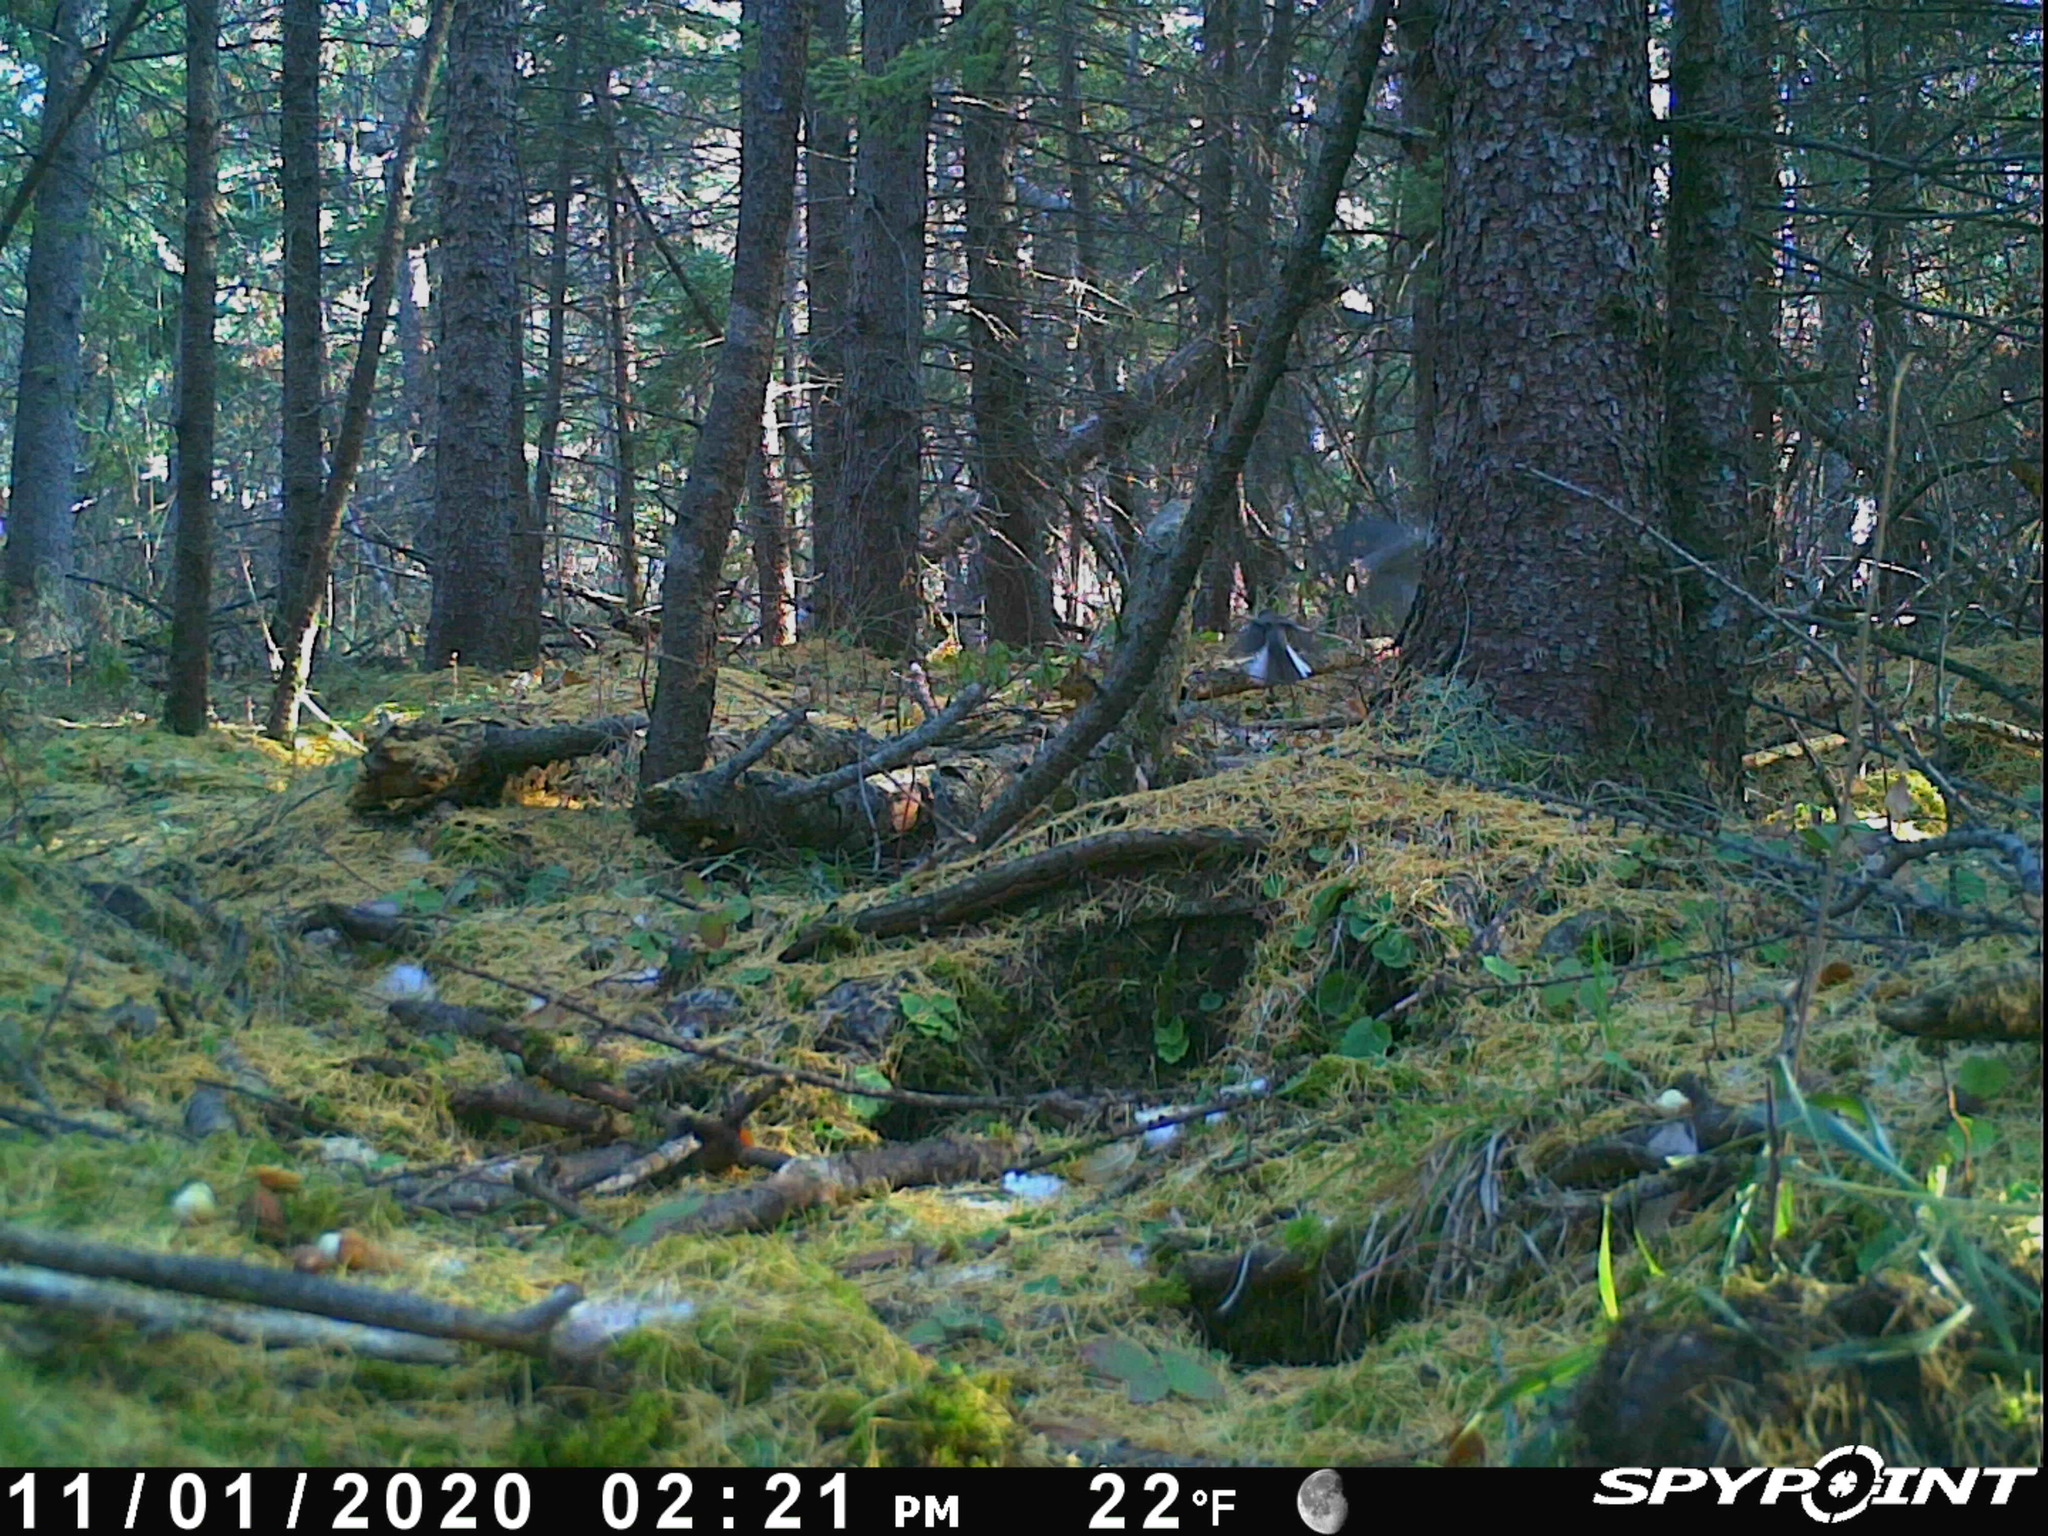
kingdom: Animalia
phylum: Chordata
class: Aves
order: Passeriformes
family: Passerellidae
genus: Junco
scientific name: Junco hyemalis
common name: Dark-eyed junco
